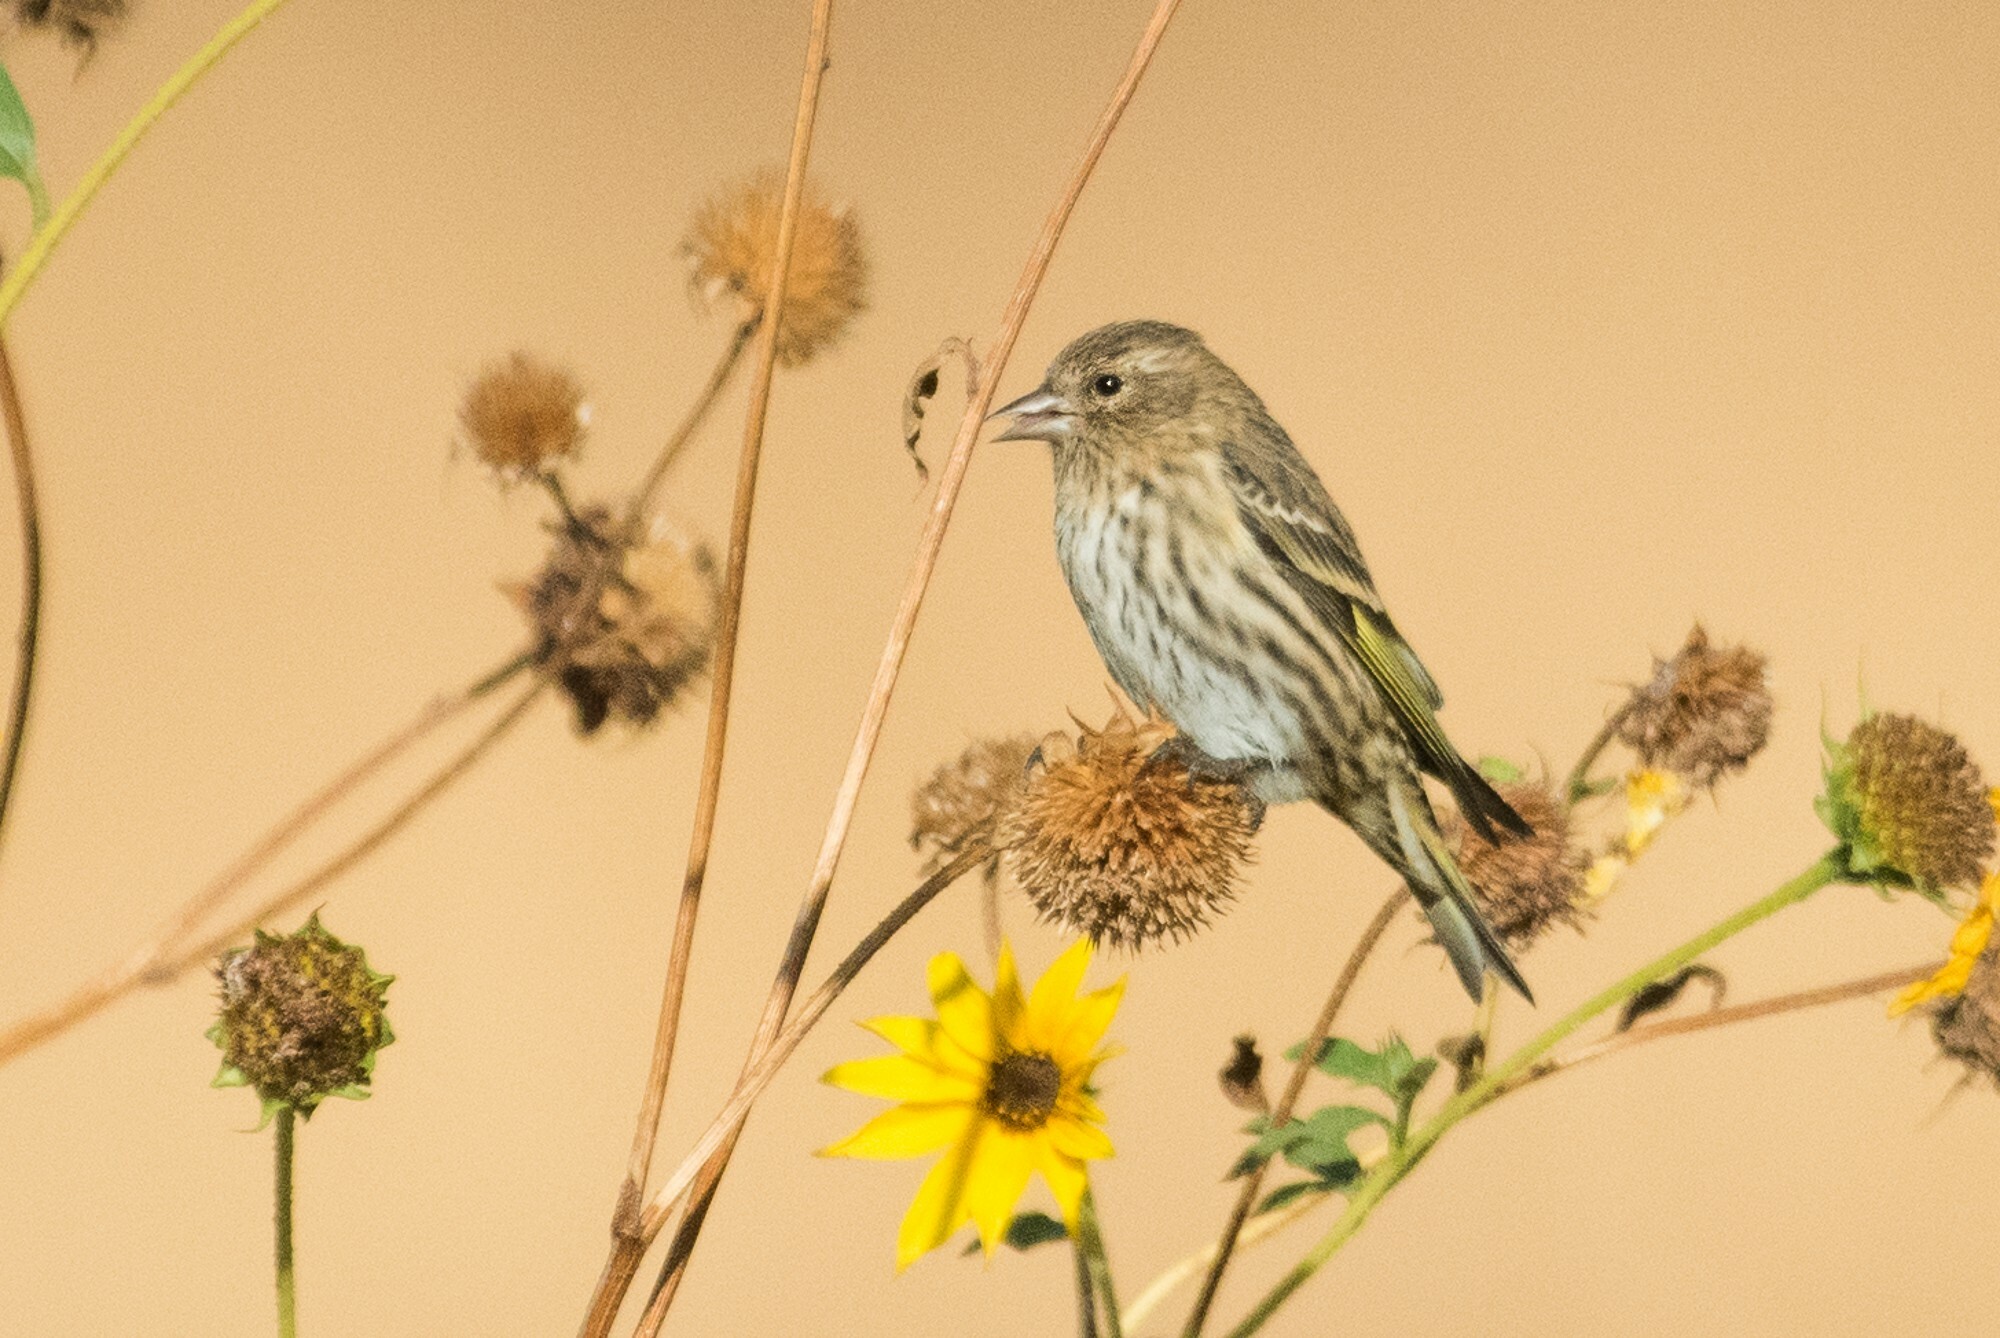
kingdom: Animalia
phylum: Chordata
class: Aves
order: Passeriformes
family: Fringillidae
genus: Spinus
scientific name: Spinus pinus
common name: Pine siskin
